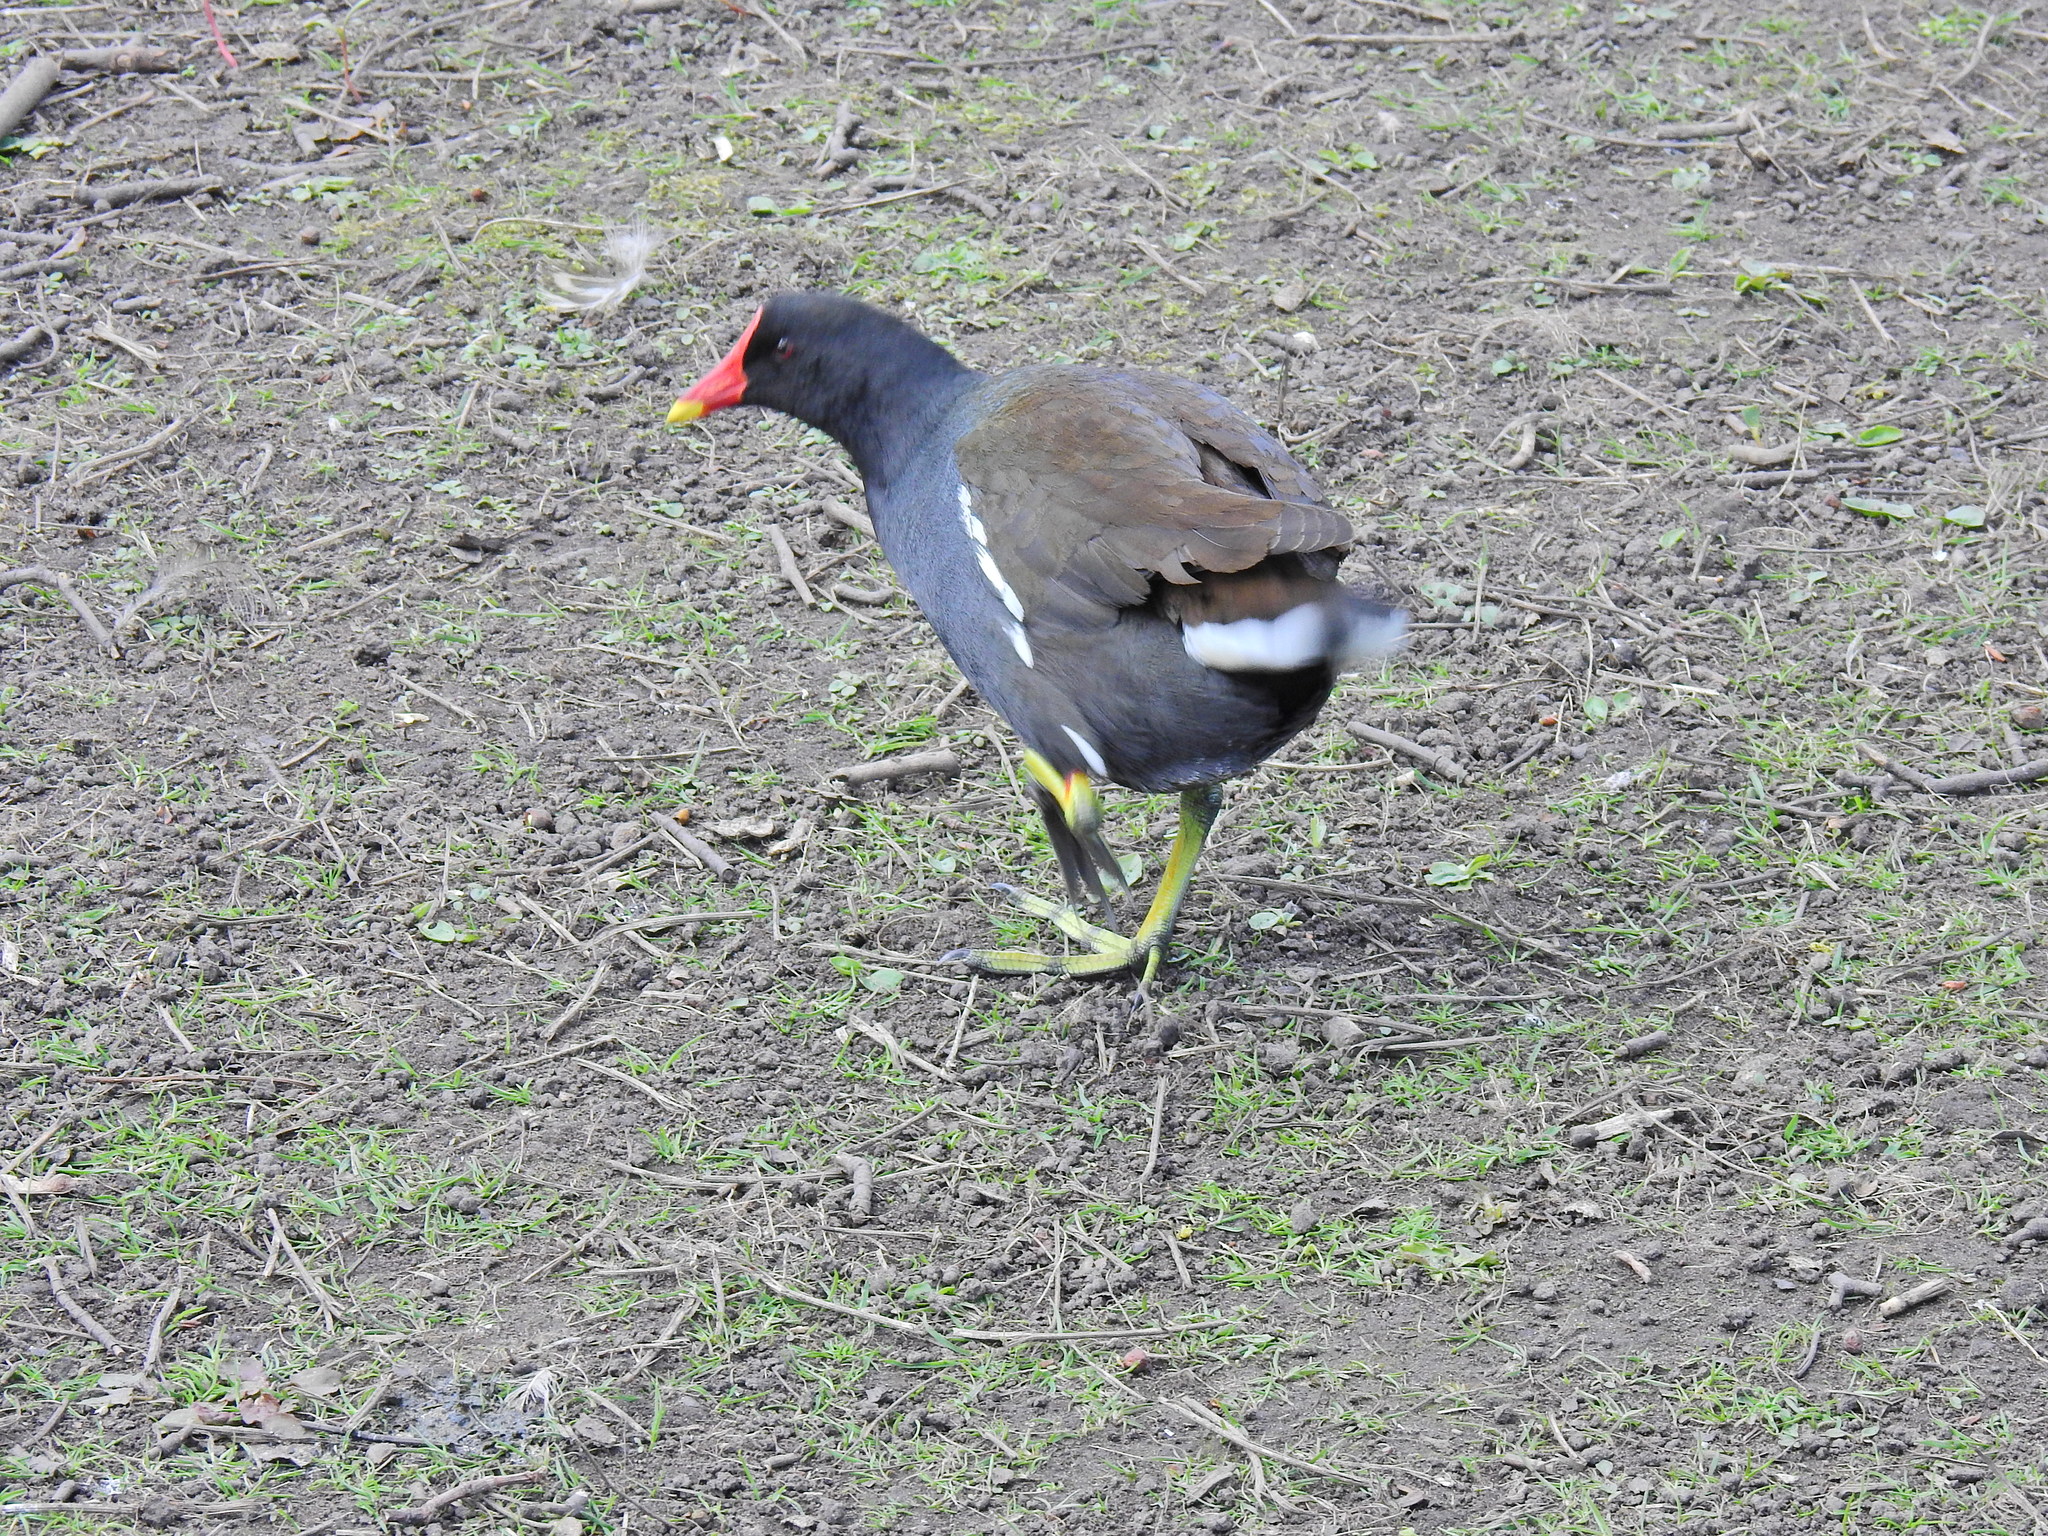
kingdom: Animalia
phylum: Chordata
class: Aves
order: Gruiformes
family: Rallidae
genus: Gallinula
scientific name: Gallinula chloropus
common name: Common moorhen
